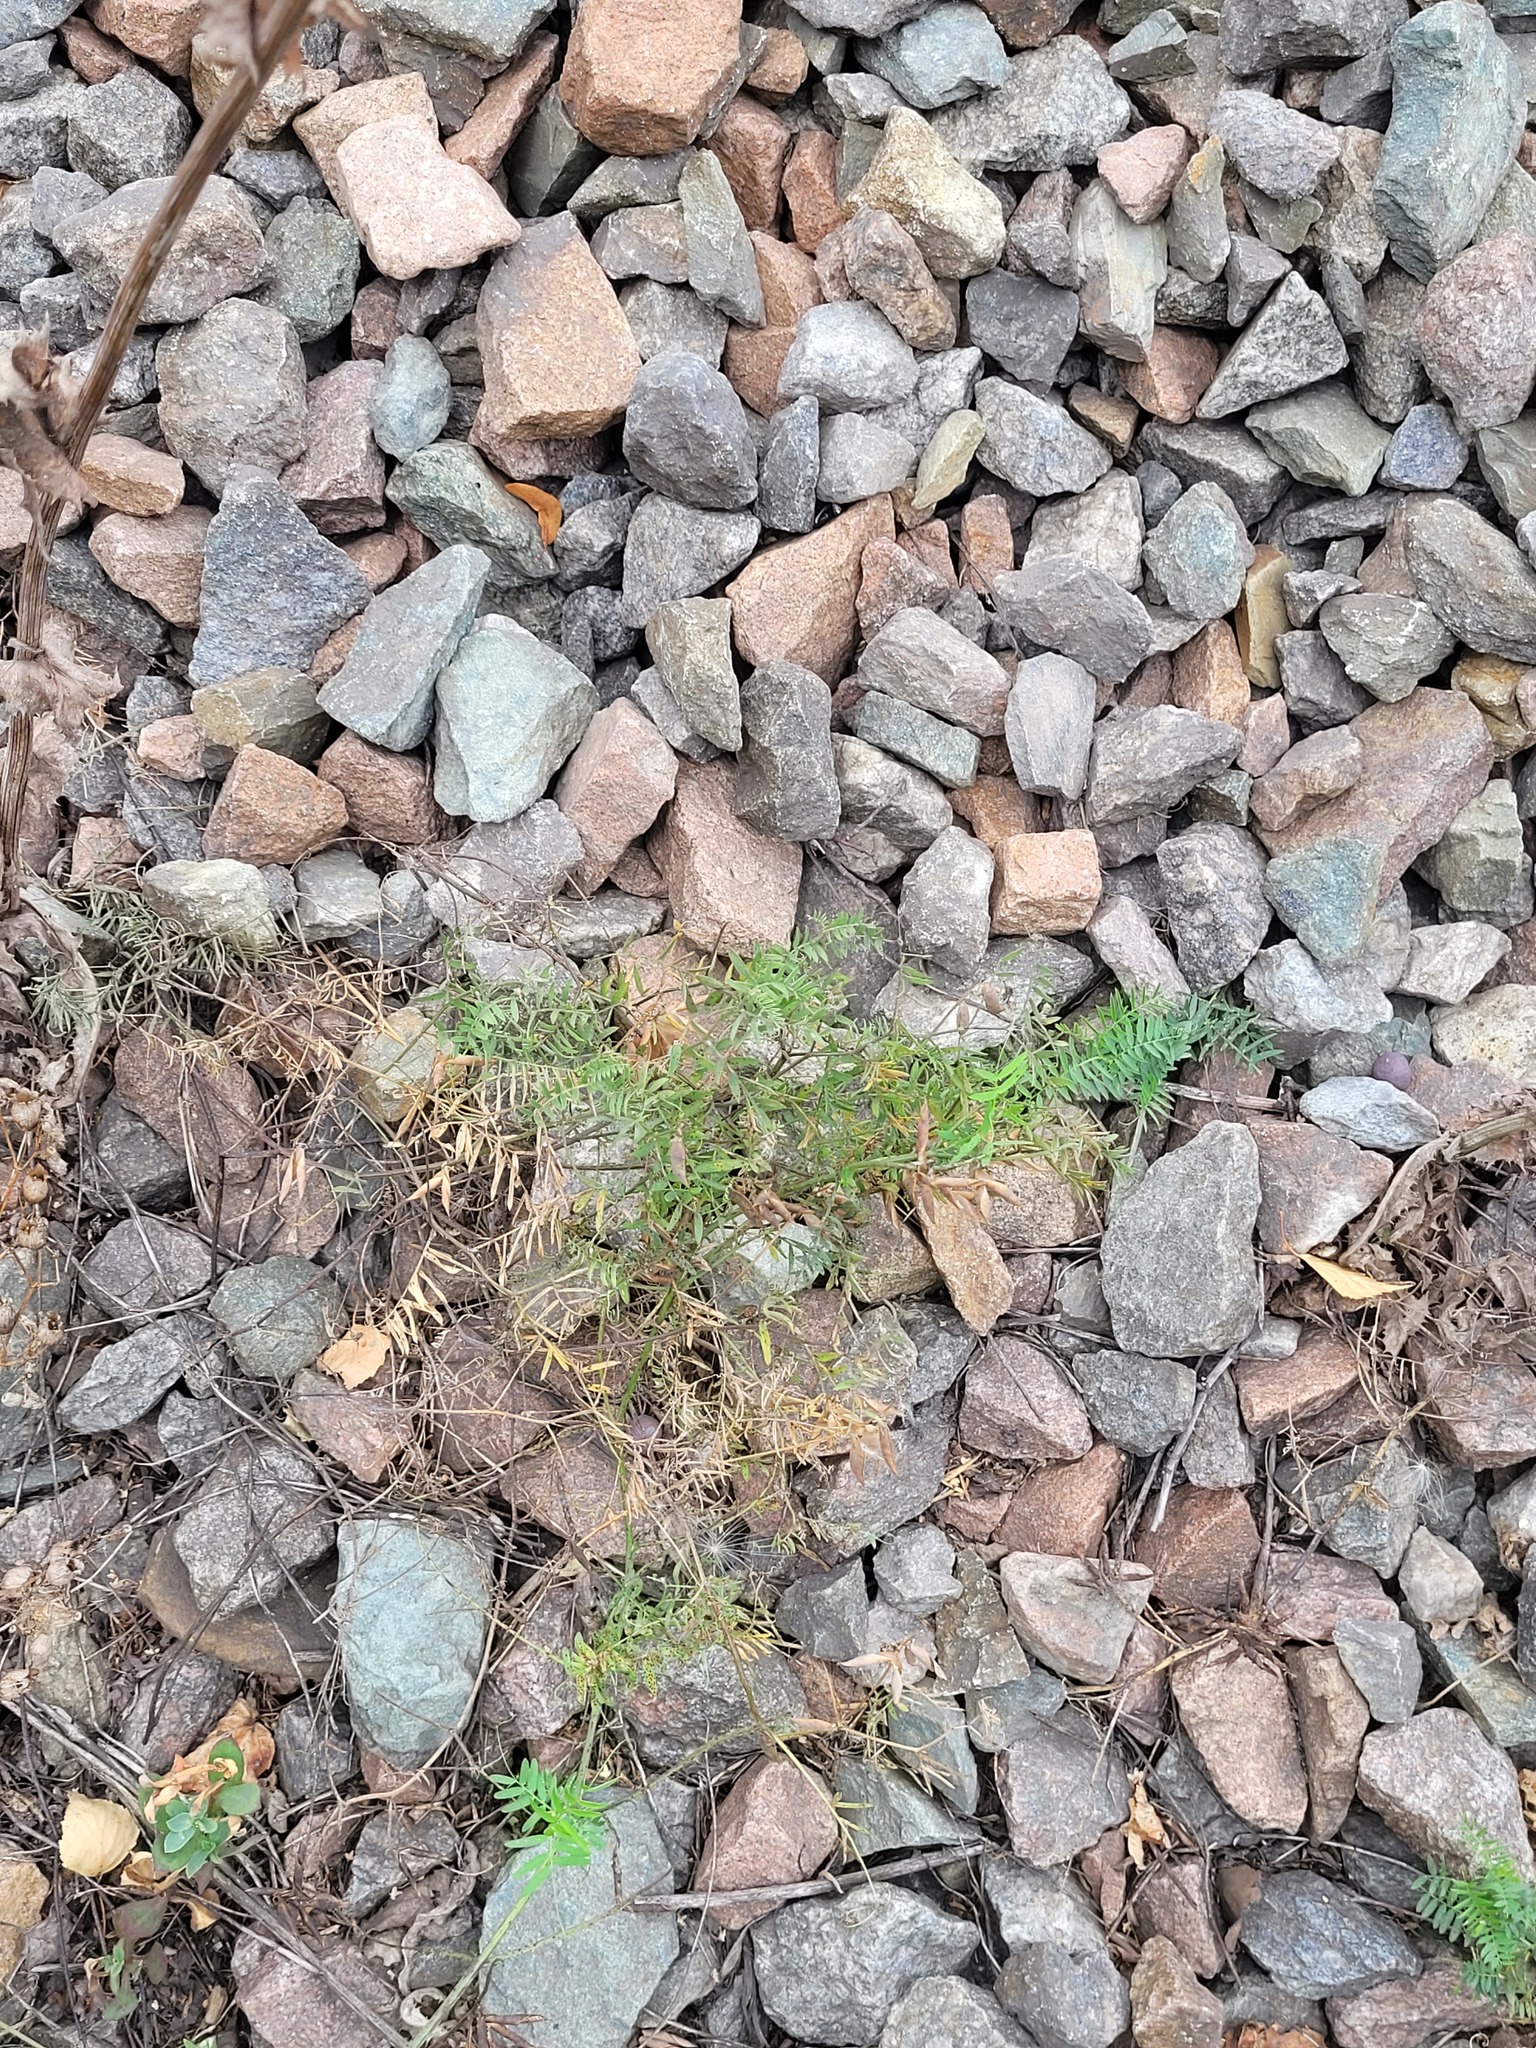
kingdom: Plantae
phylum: Tracheophyta
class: Magnoliopsida
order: Fabales
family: Fabaceae
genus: Vicia
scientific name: Vicia cracca
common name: Bird vetch
